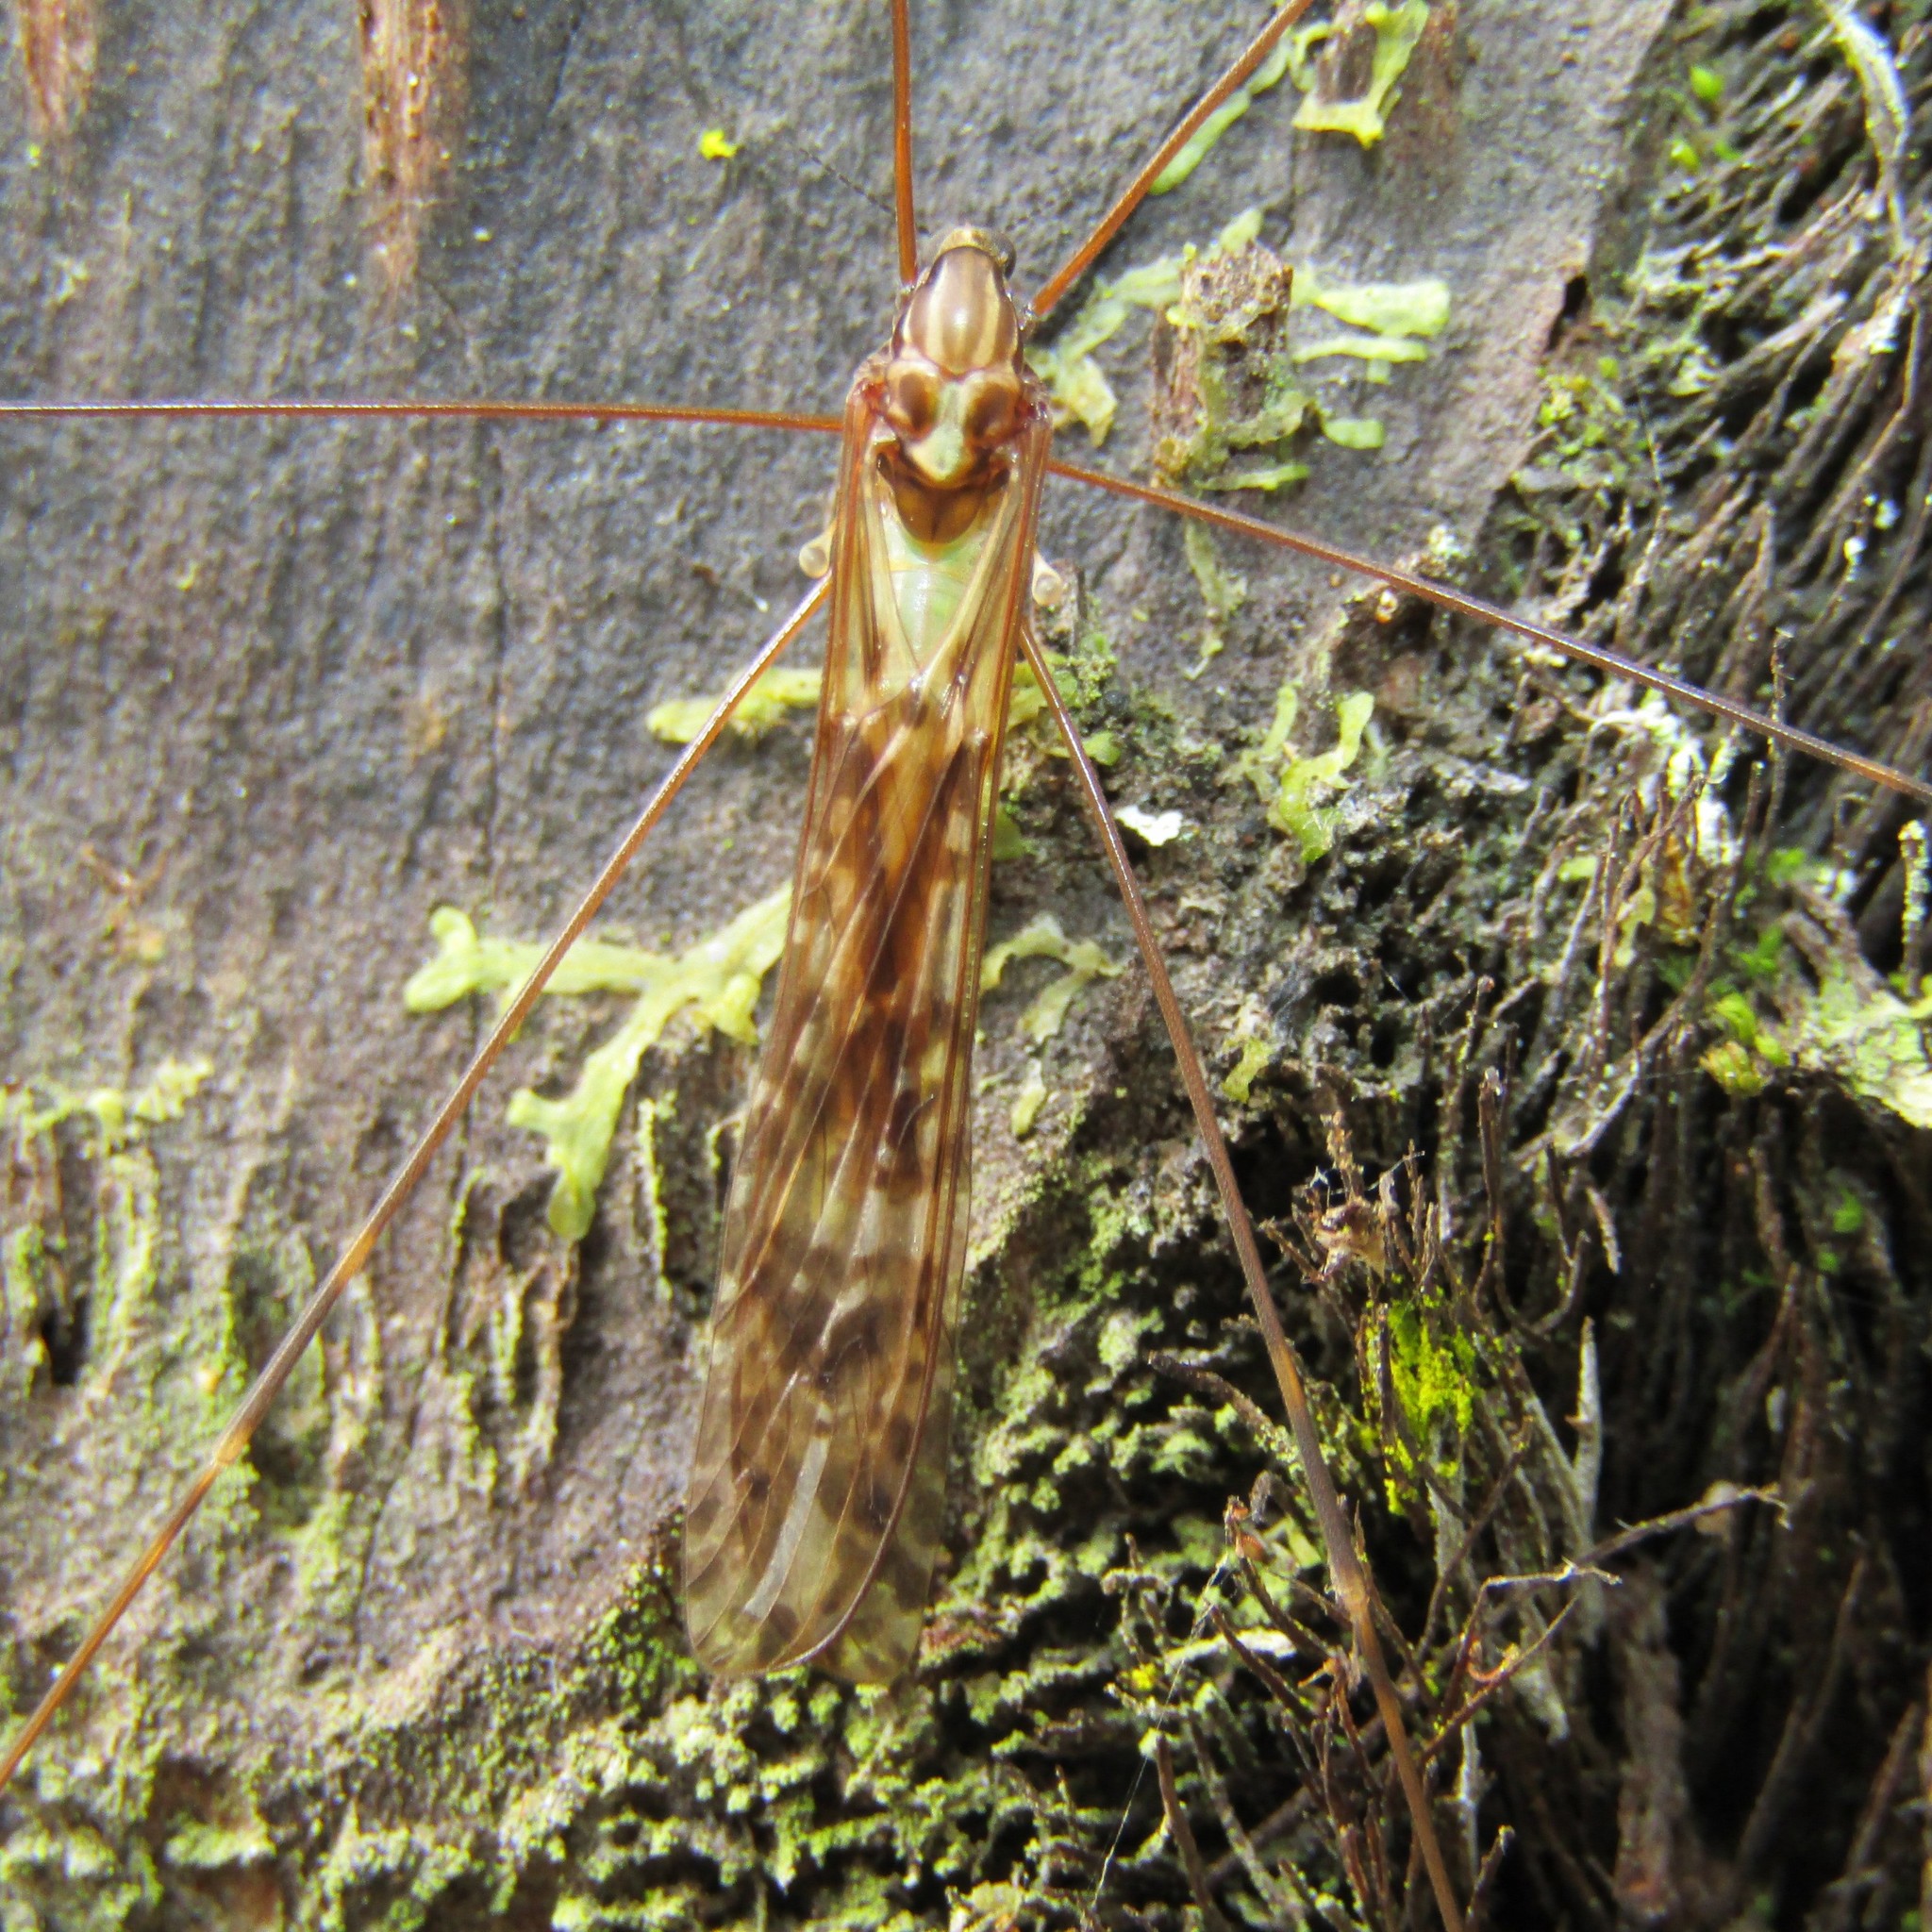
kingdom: Animalia
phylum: Arthropoda
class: Insecta
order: Diptera
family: Limoniidae
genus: Discobola
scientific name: Discobola dohrni
